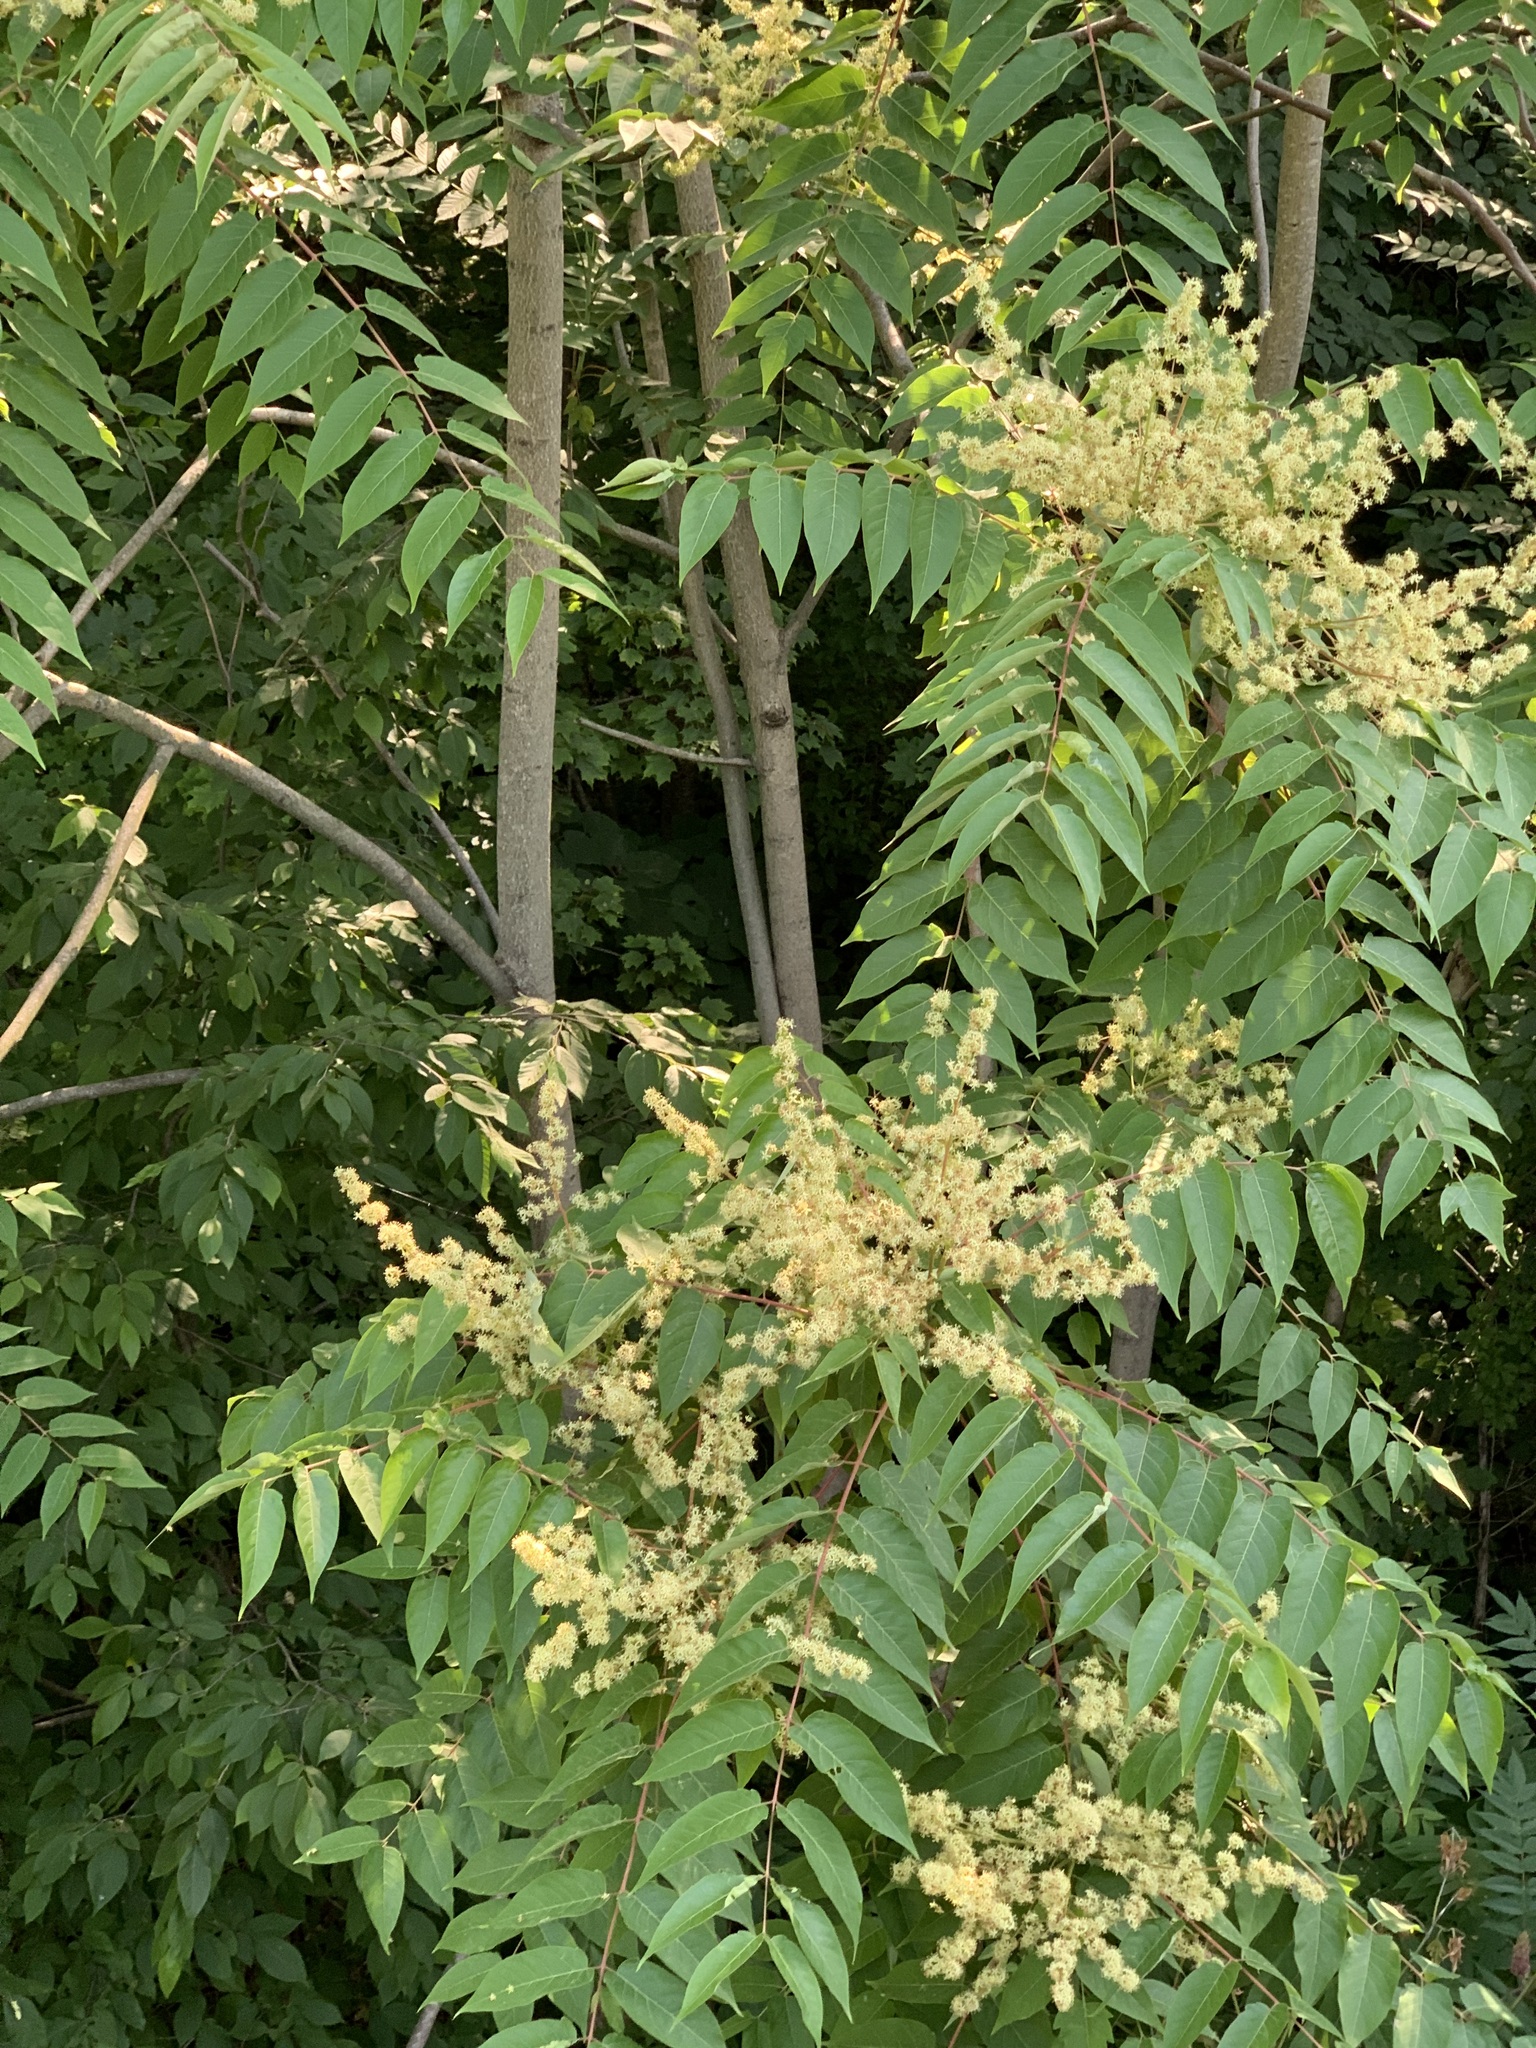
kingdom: Plantae
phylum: Tracheophyta
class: Magnoliopsida
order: Sapindales
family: Simaroubaceae
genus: Ailanthus
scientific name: Ailanthus altissima
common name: Tree-of-heaven
